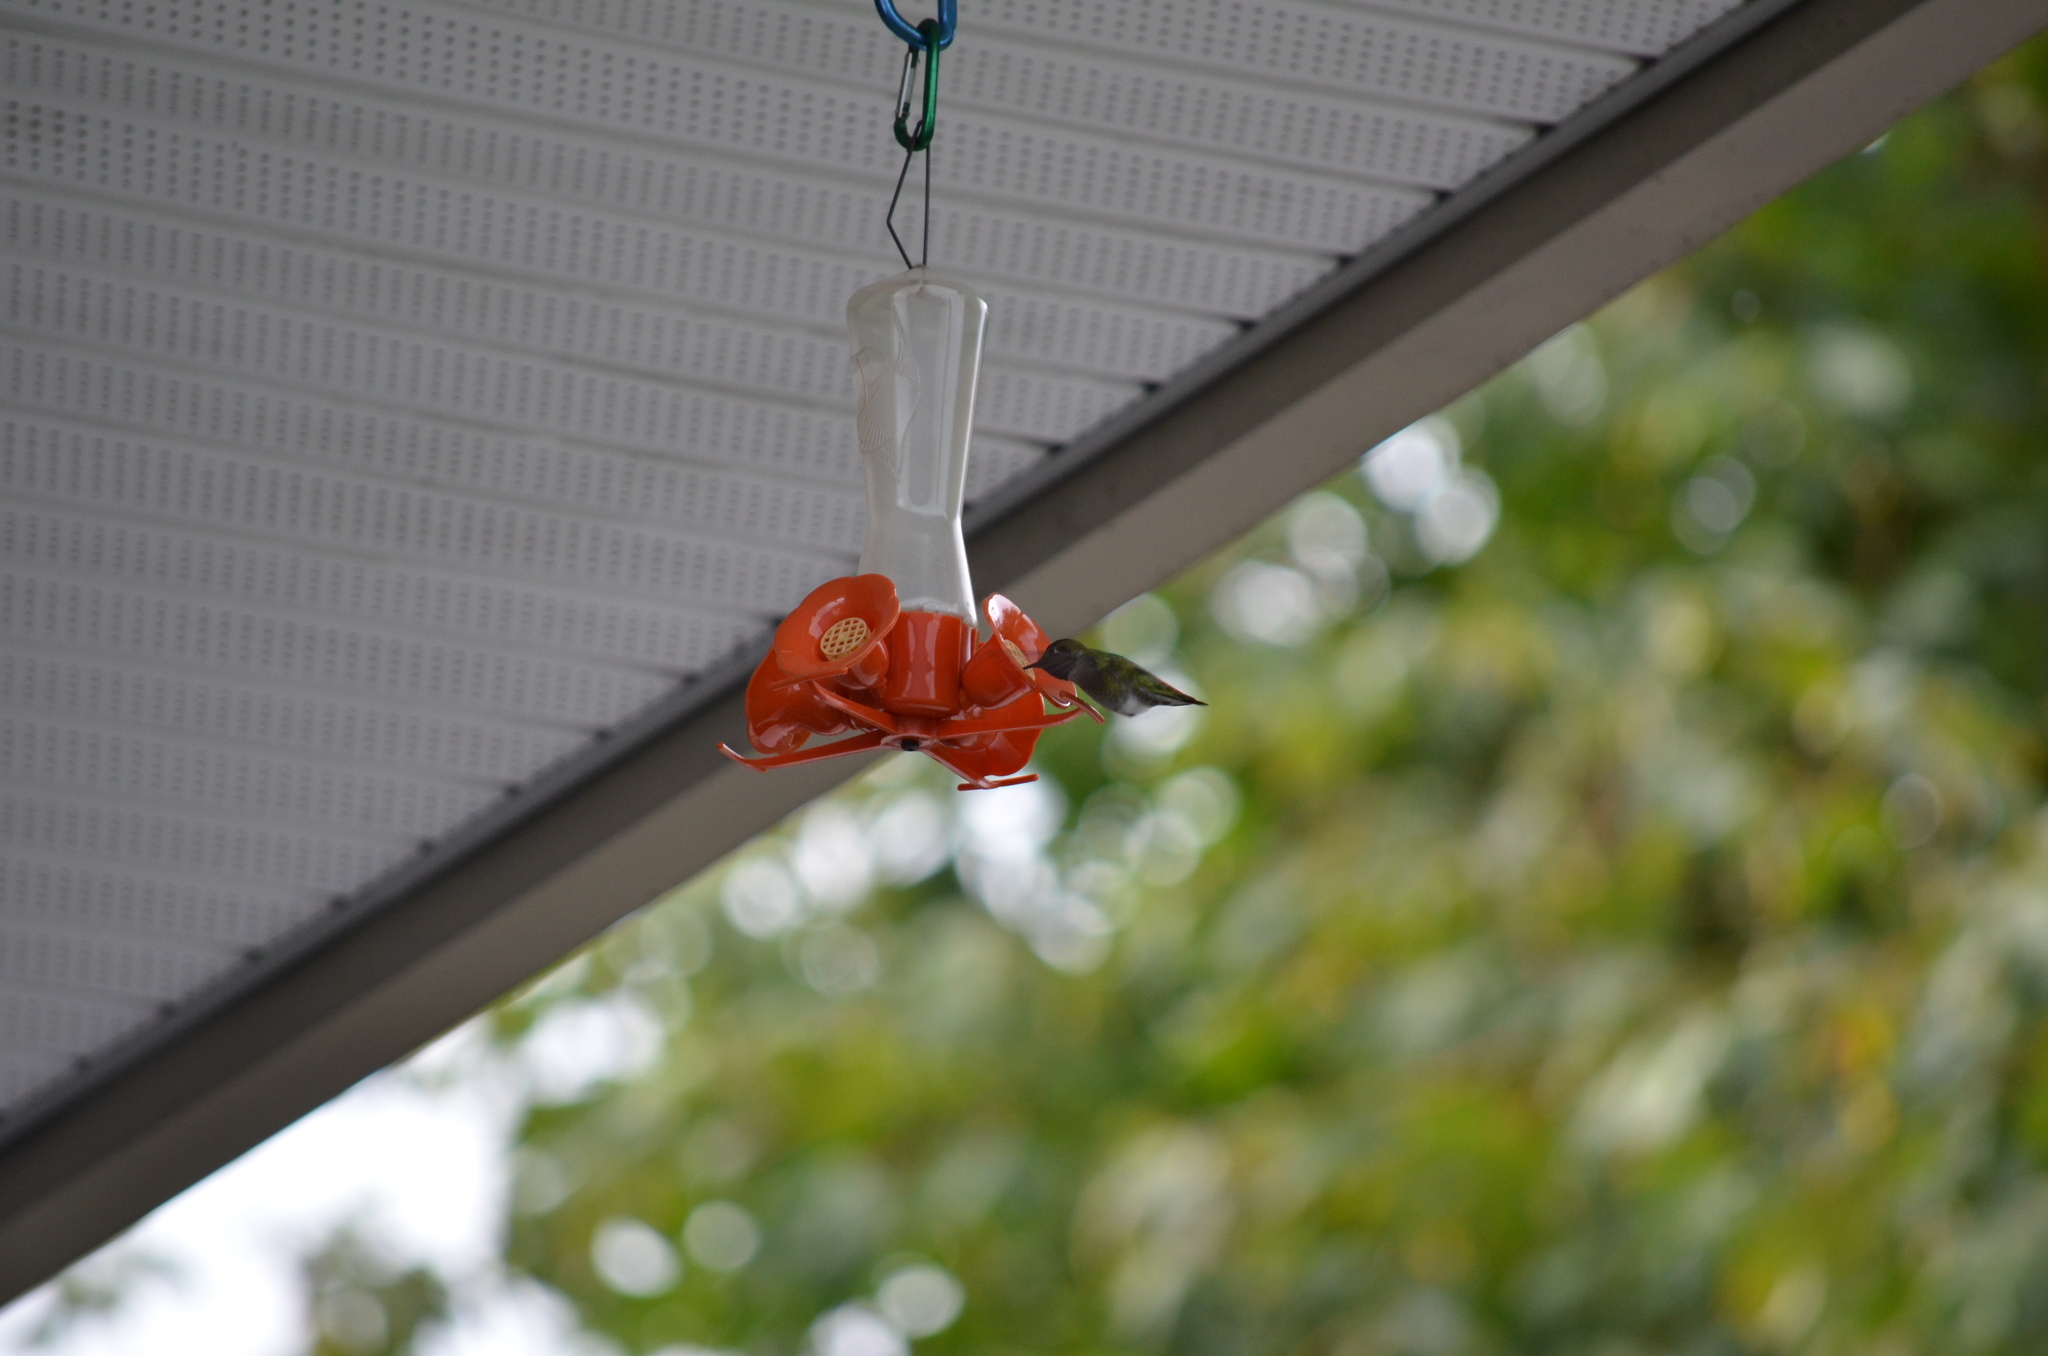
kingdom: Animalia
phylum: Chordata
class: Aves
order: Apodiformes
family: Trochilidae
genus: Calypte
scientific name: Calypte anna
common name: Anna's hummingbird
